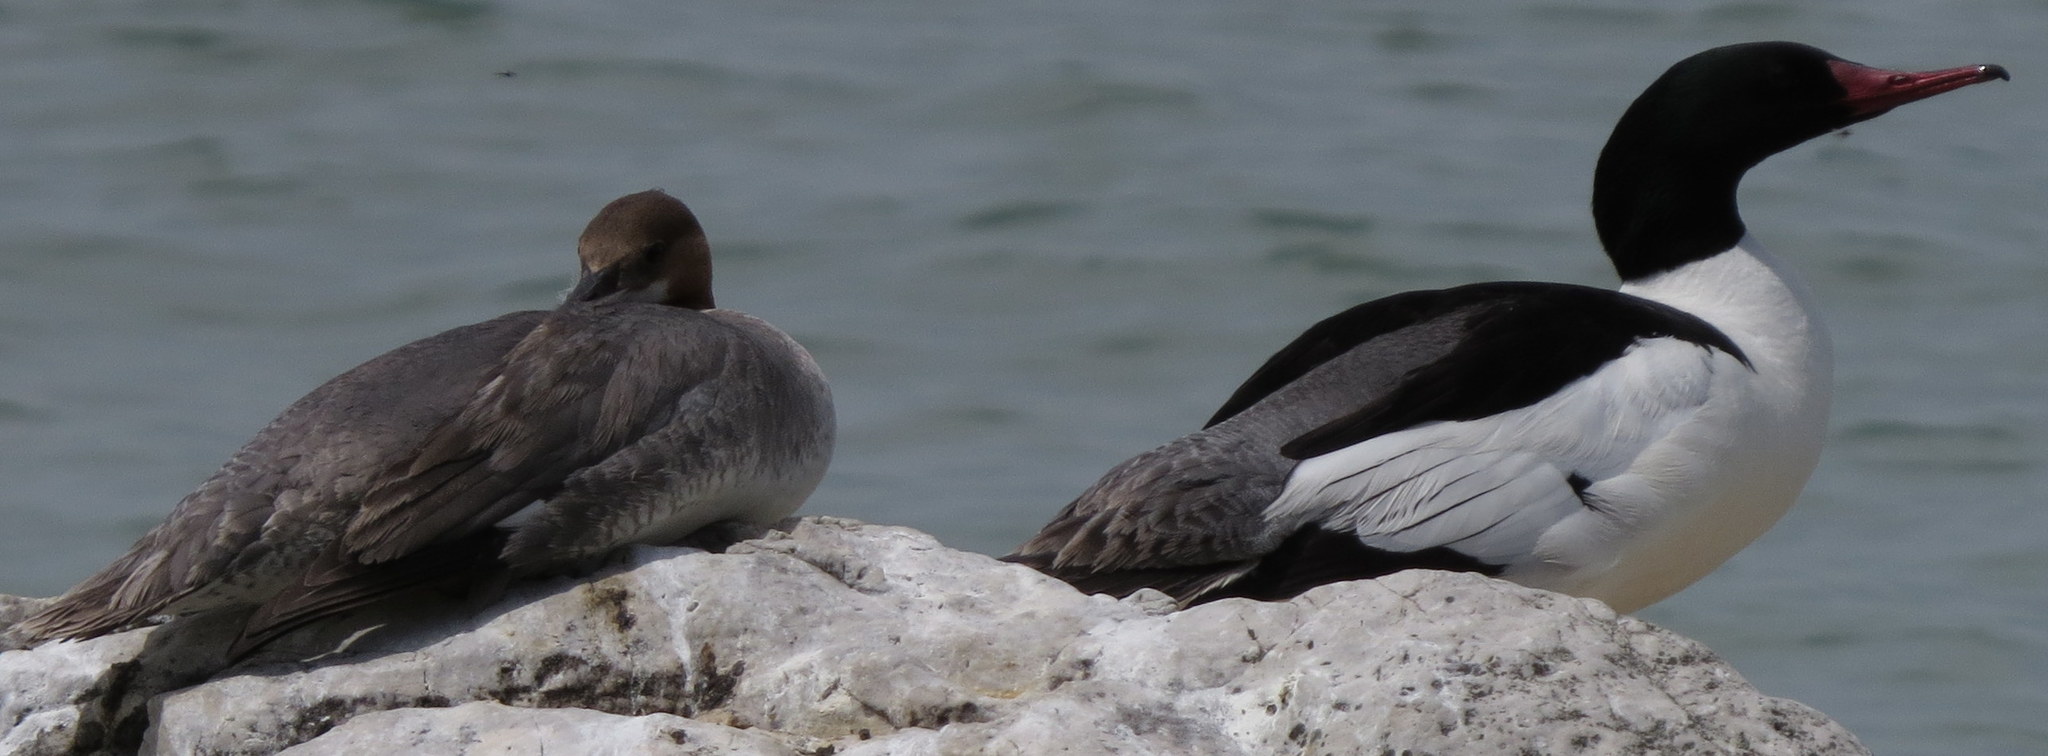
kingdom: Animalia
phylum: Chordata
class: Aves
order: Anseriformes
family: Anatidae
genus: Mergus
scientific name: Mergus merganser
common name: Common merganser
